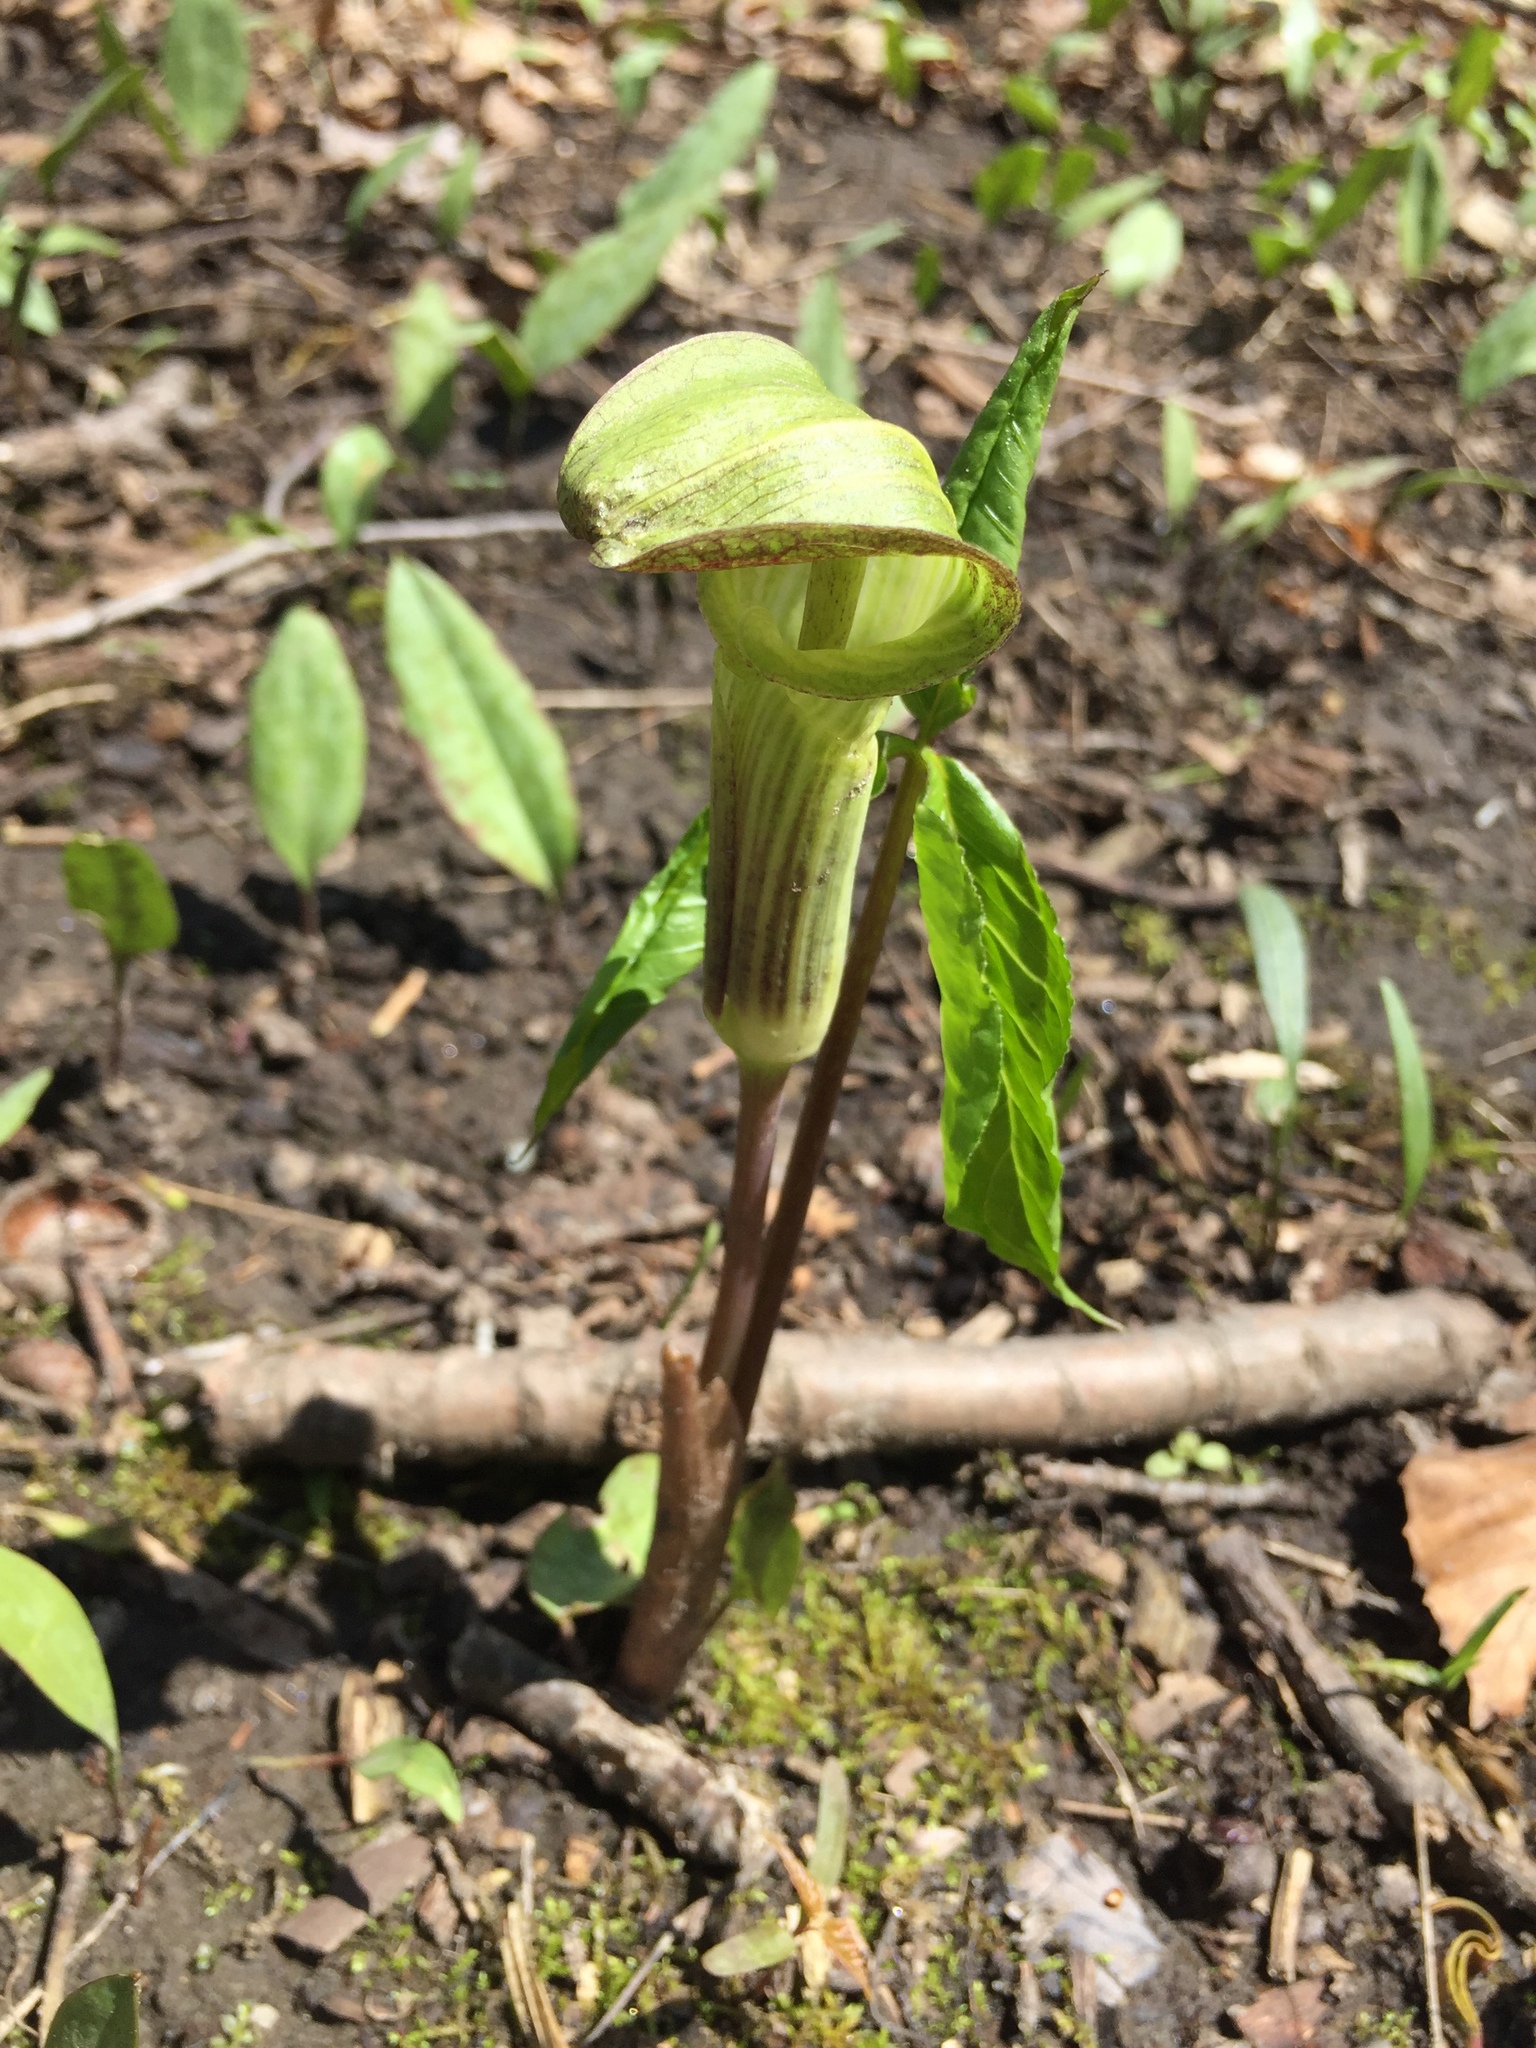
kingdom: Plantae
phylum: Tracheophyta
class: Liliopsida
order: Alismatales
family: Araceae
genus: Arisaema
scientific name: Arisaema triphyllum
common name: Jack-in-the-pulpit
